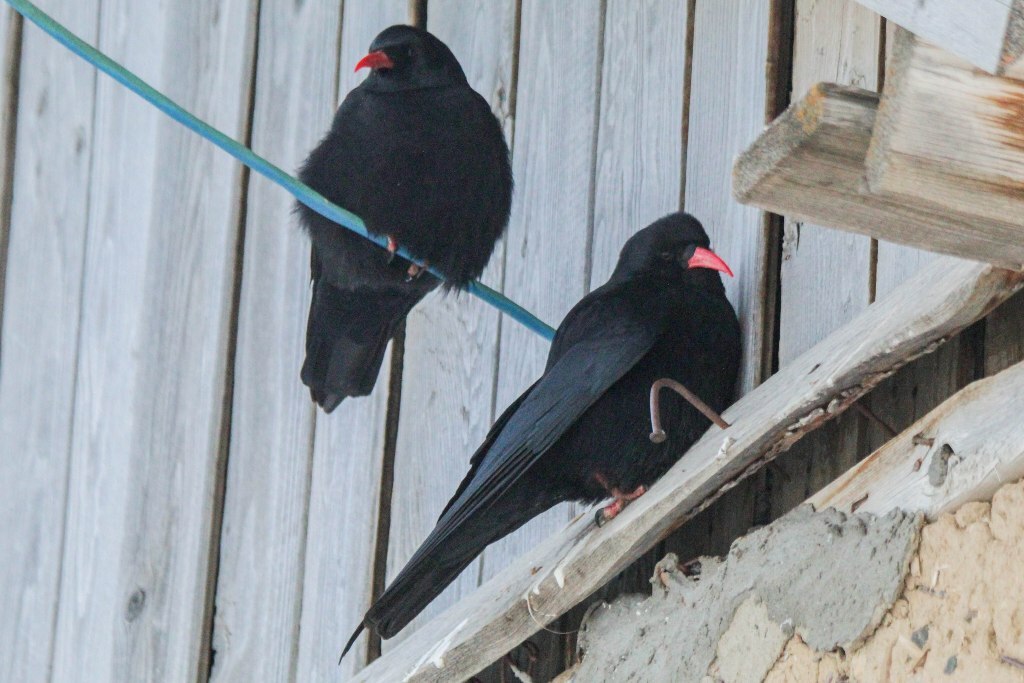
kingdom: Animalia
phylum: Chordata
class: Aves
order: Passeriformes
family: Corvidae
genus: Pyrrhocorax
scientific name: Pyrrhocorax pyrrhocorax
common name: Red-billed chough
